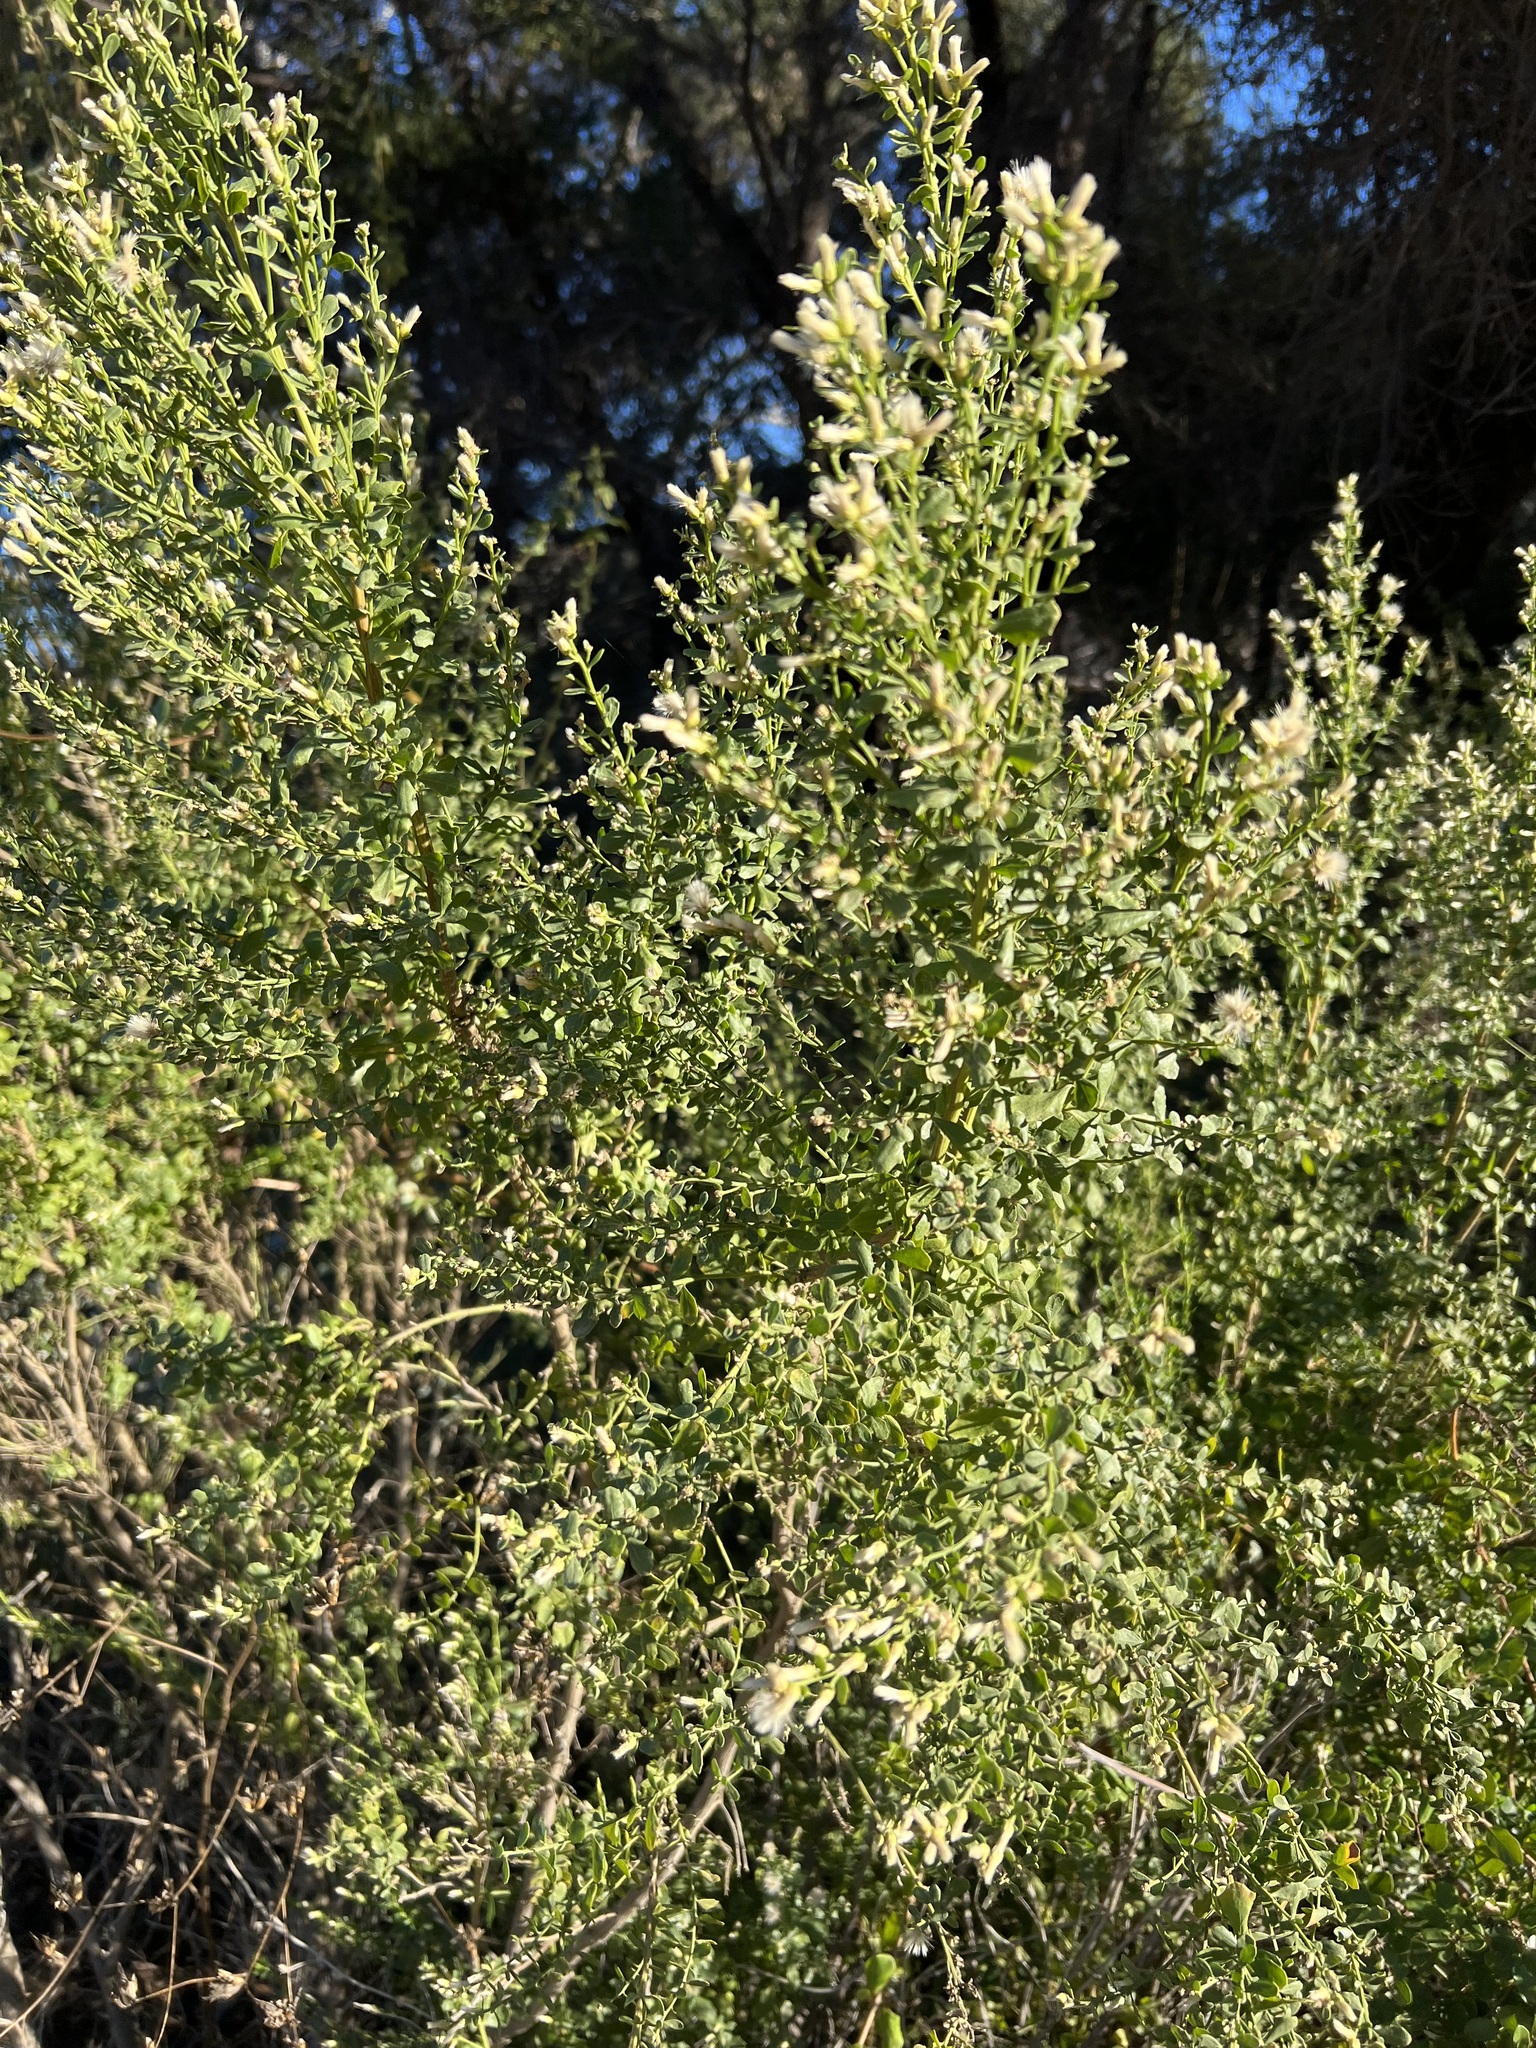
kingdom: Plantae
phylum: Tracheophyta
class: Magnoliopsida
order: Asterales
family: Asteraceae
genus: Baccharis
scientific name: Baccharis pilularis
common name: Coyotebrush
